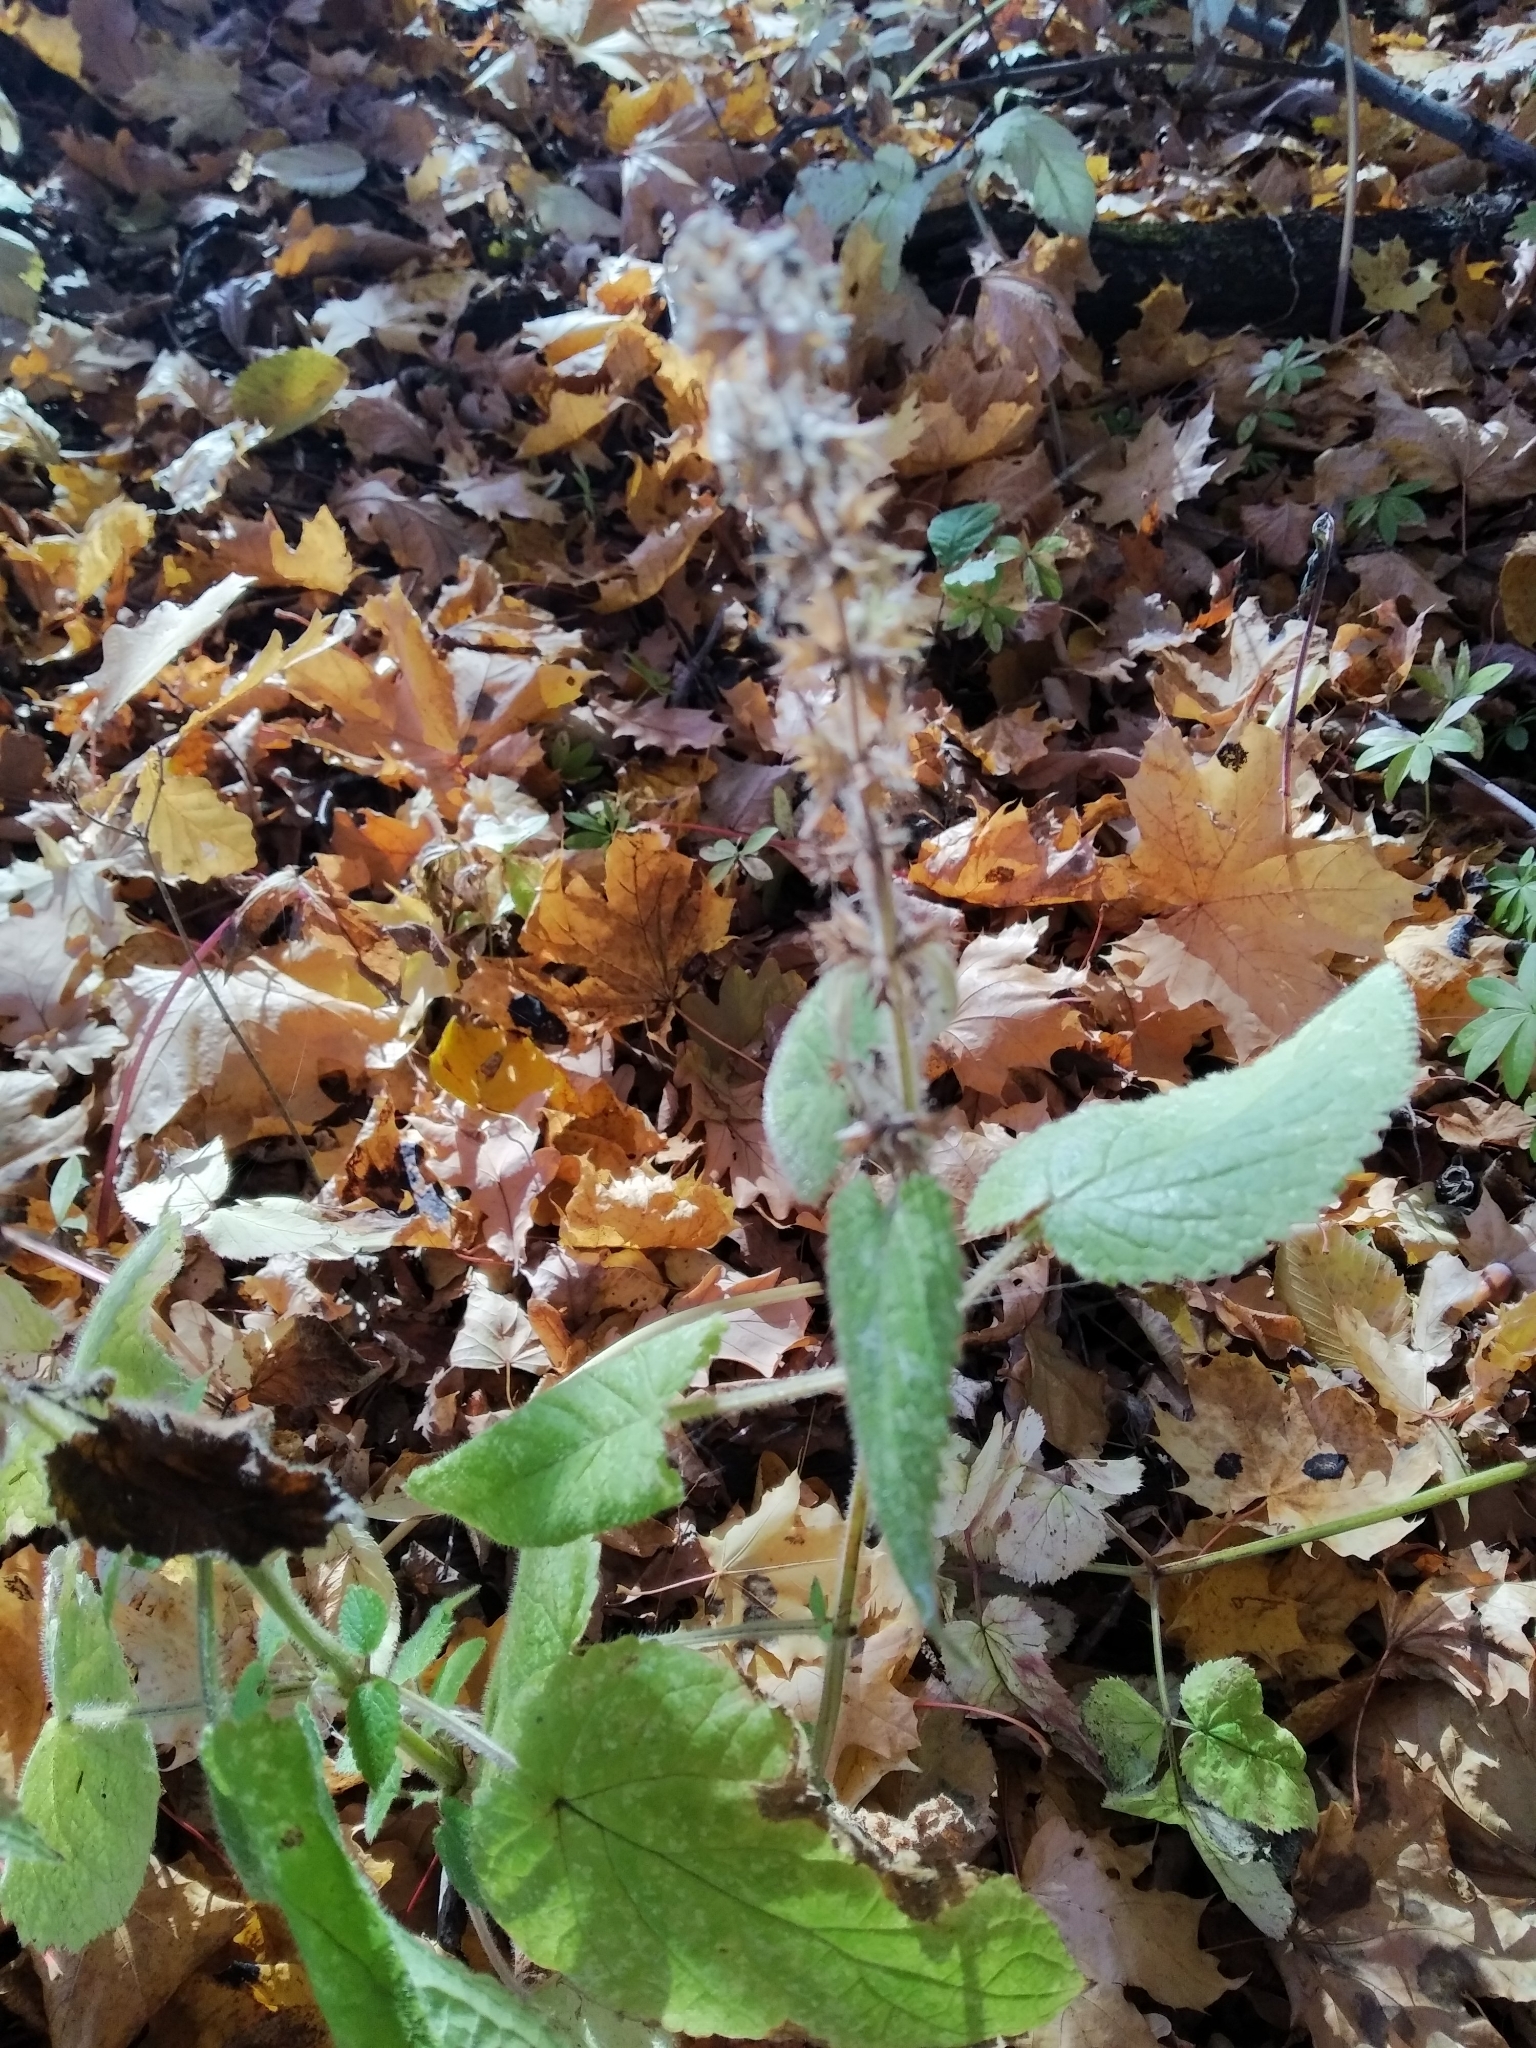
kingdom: Plantae
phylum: Tracheophyta
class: Magnoliopsida
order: Lamiales
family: Lamiaceae
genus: Stachys
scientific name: Stachys sylvatica
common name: Hedge woundwort
